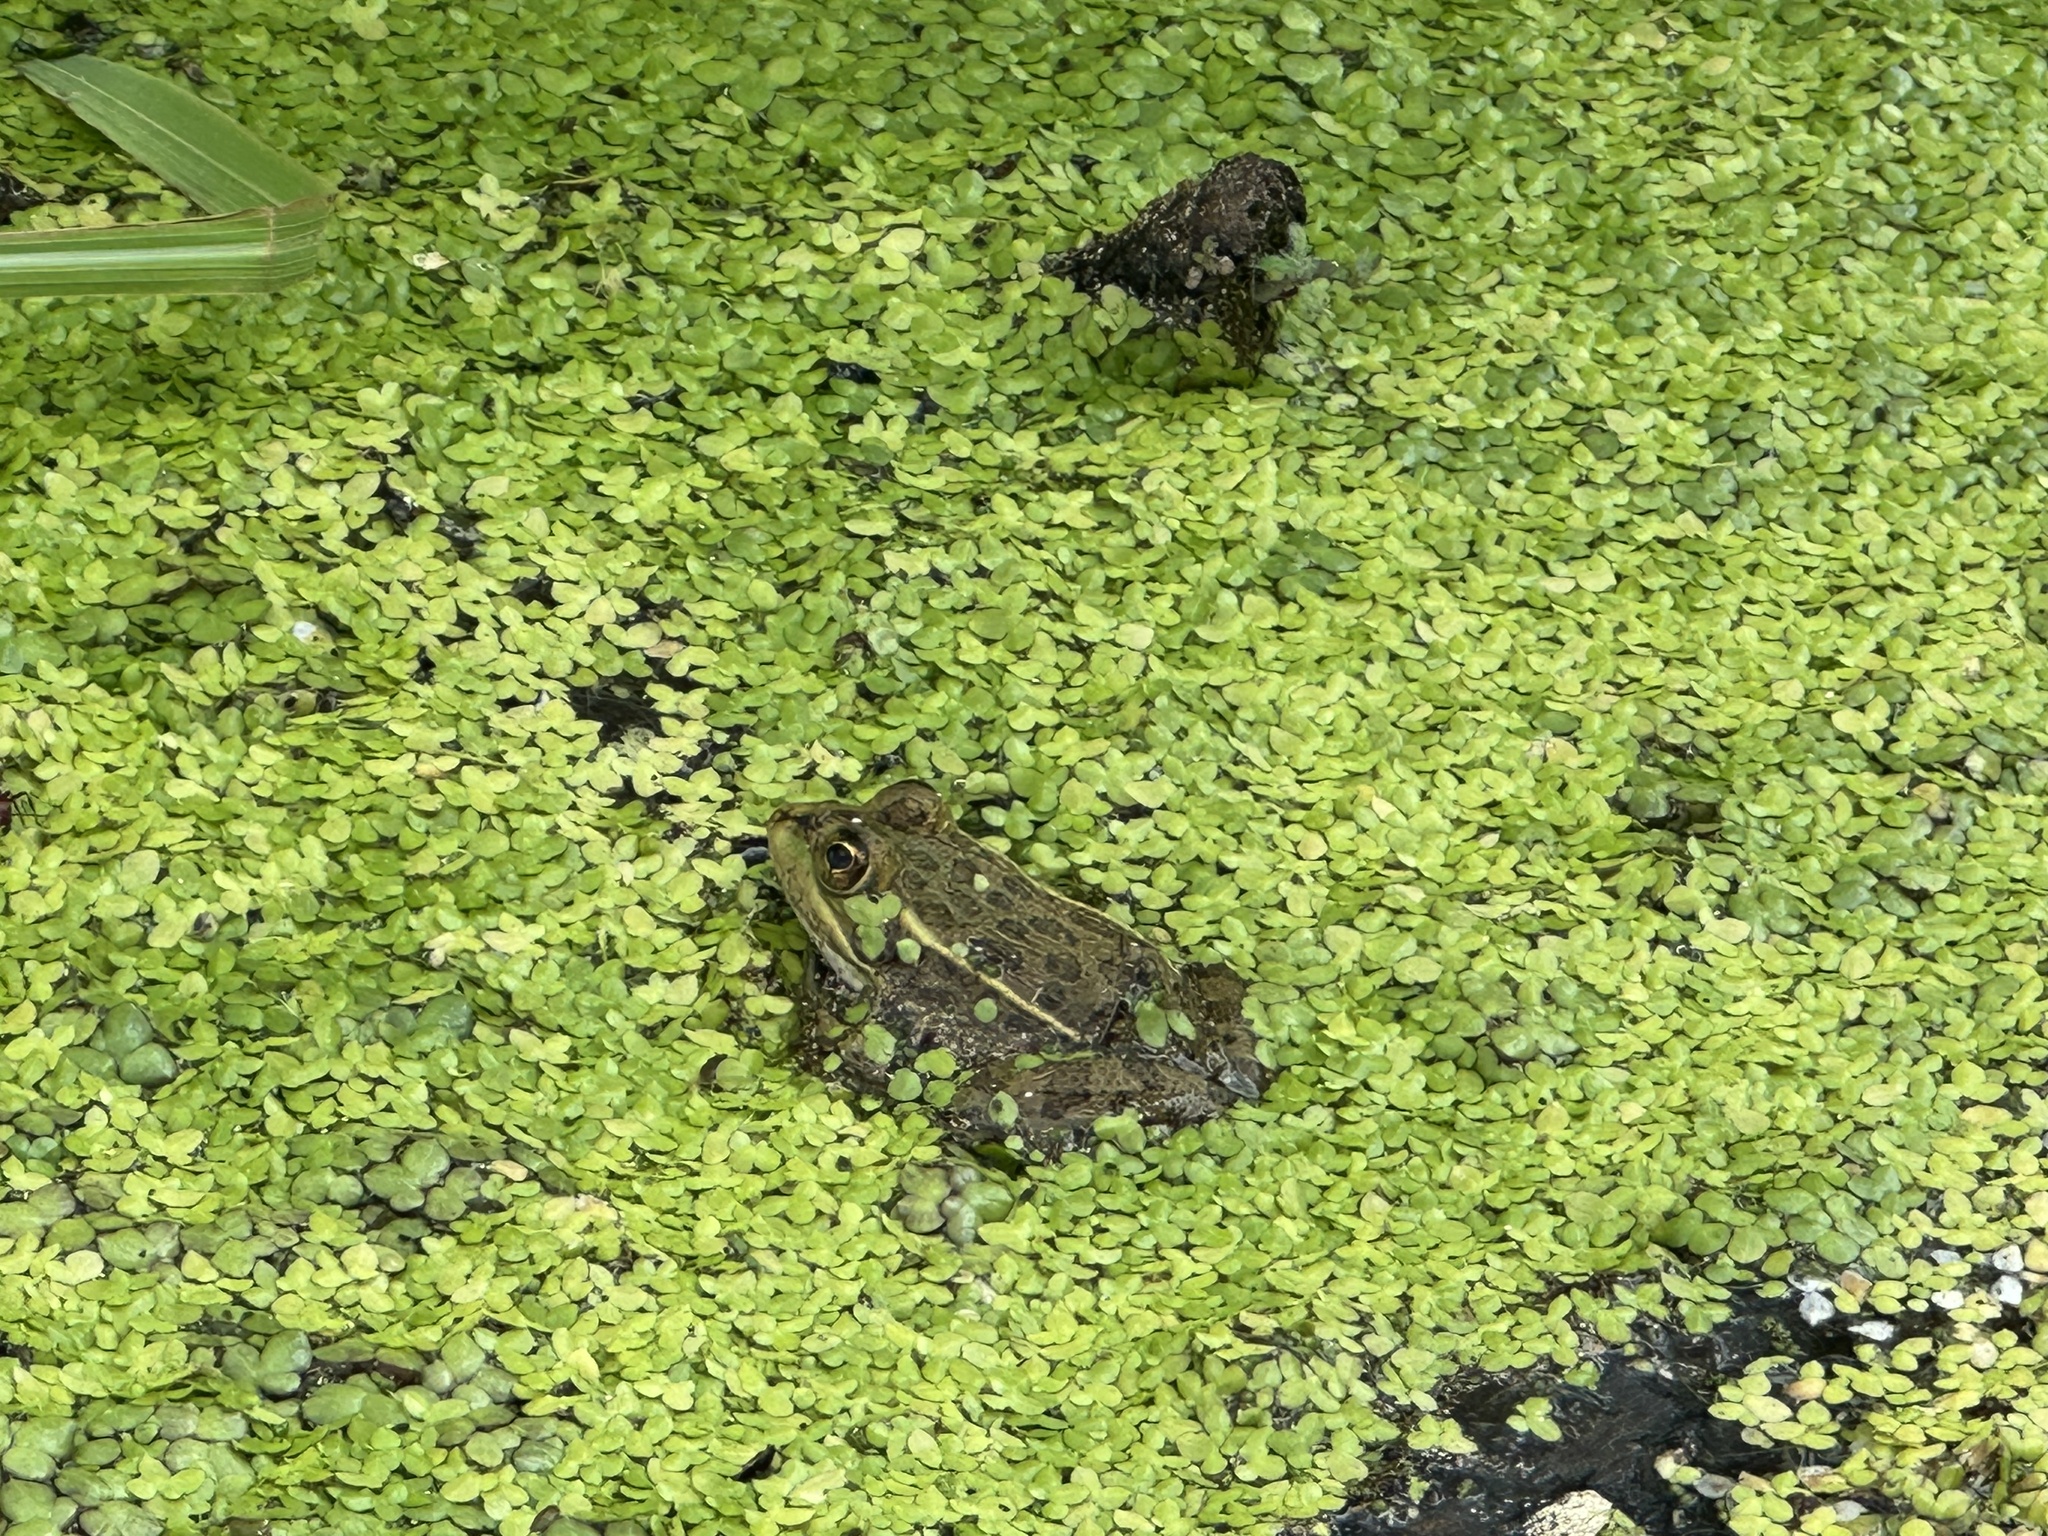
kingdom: Animalia
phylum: Chordata
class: Amphibia
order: Anura
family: Ranidae
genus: Lithobates
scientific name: Lithobates neovolcanicus
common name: Transverse volcanic leopard frog
